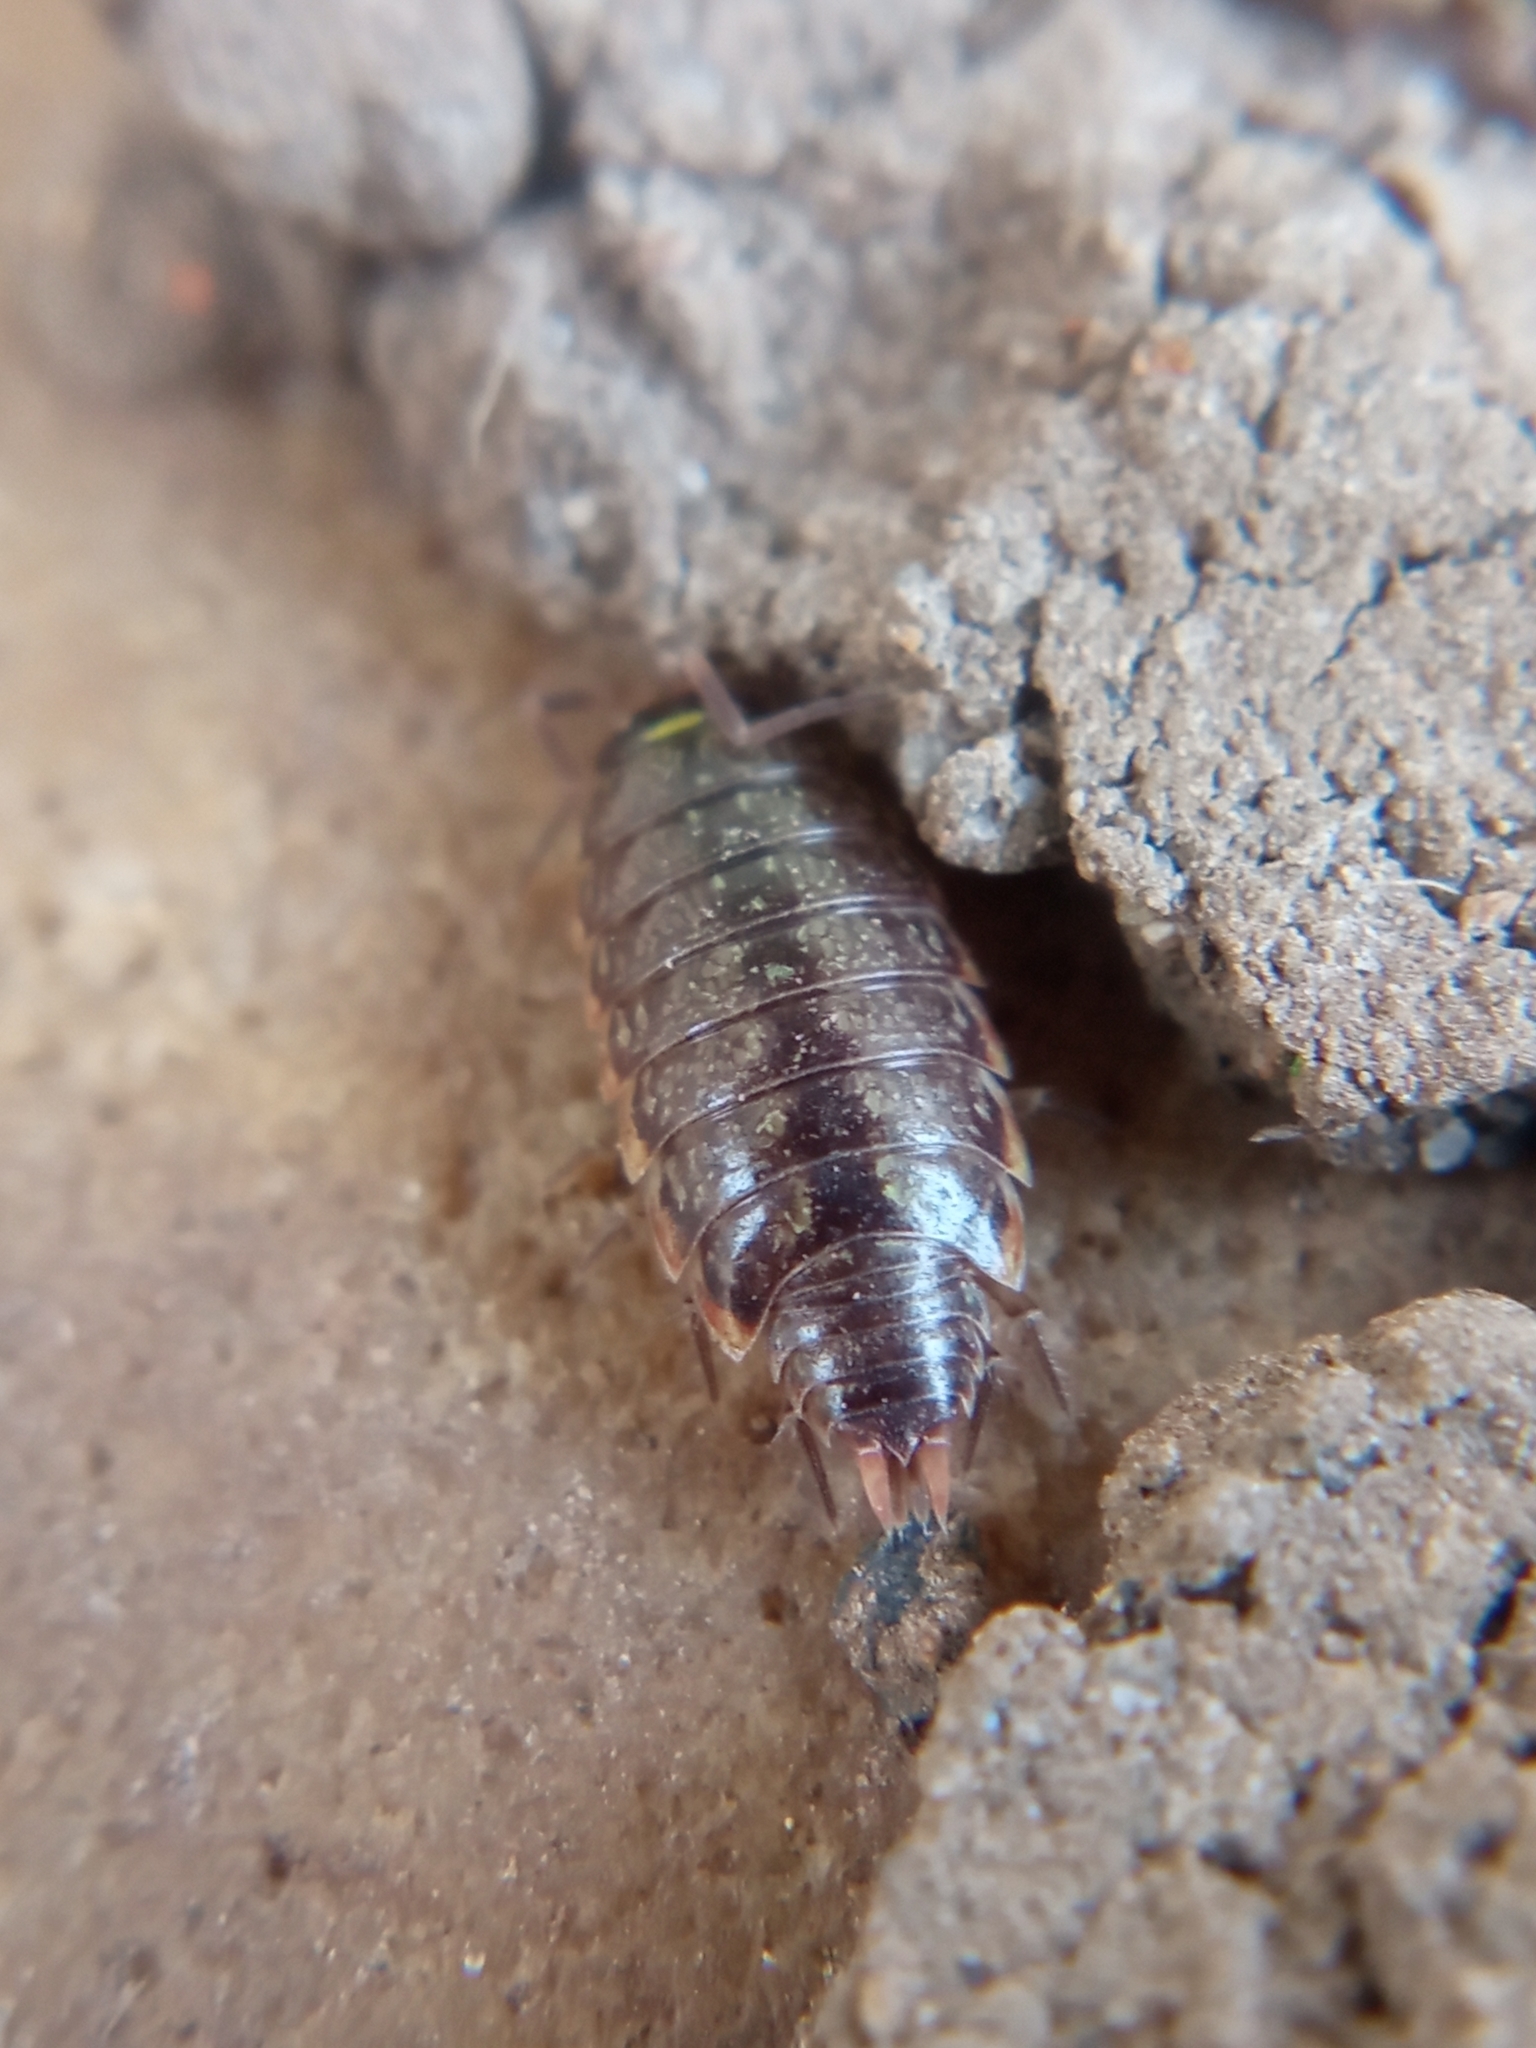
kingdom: Animalia
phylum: Arthropoda
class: Malacostraca
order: Isopoda
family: Philosciidae
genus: Philoscia
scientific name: Philoscia muscorum
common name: Common striped woodlouse
